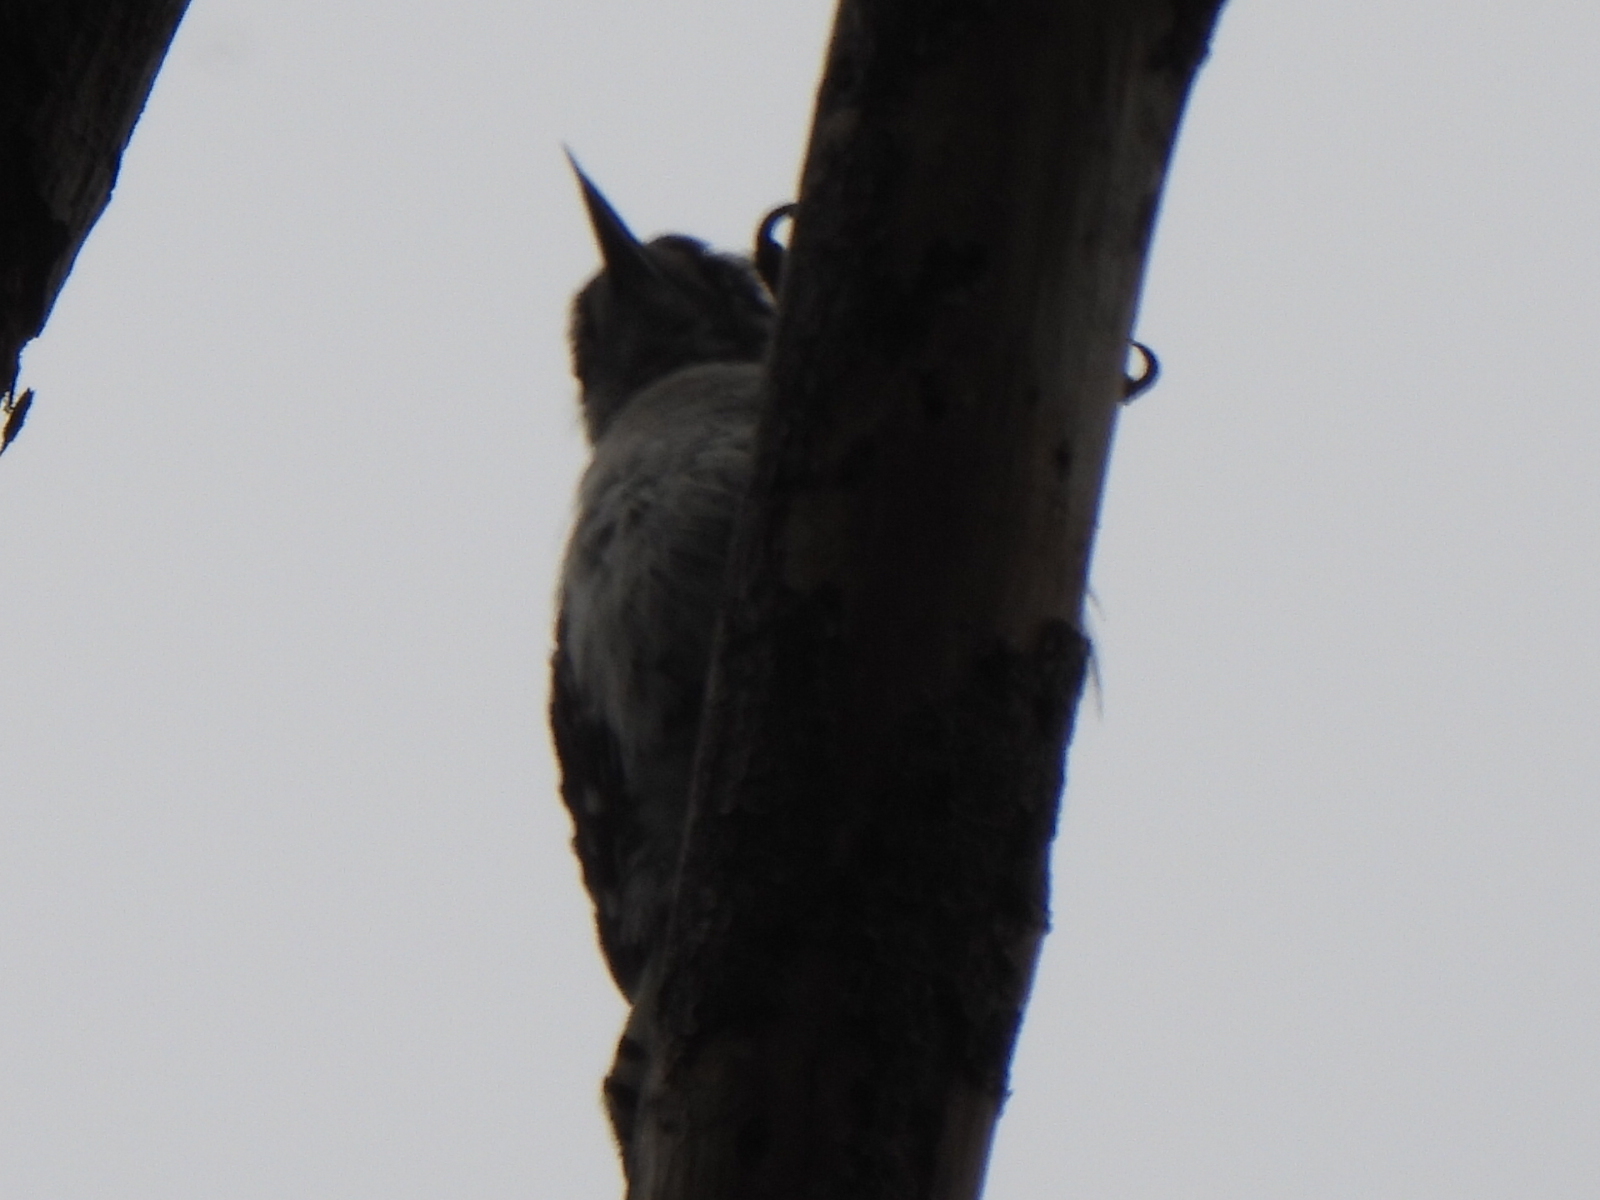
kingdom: Animalia
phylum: Chordata
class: Aves
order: Piciformes
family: Picidae
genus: Dryobates
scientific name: Dryobates pubescens
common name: Downy woodpecker
